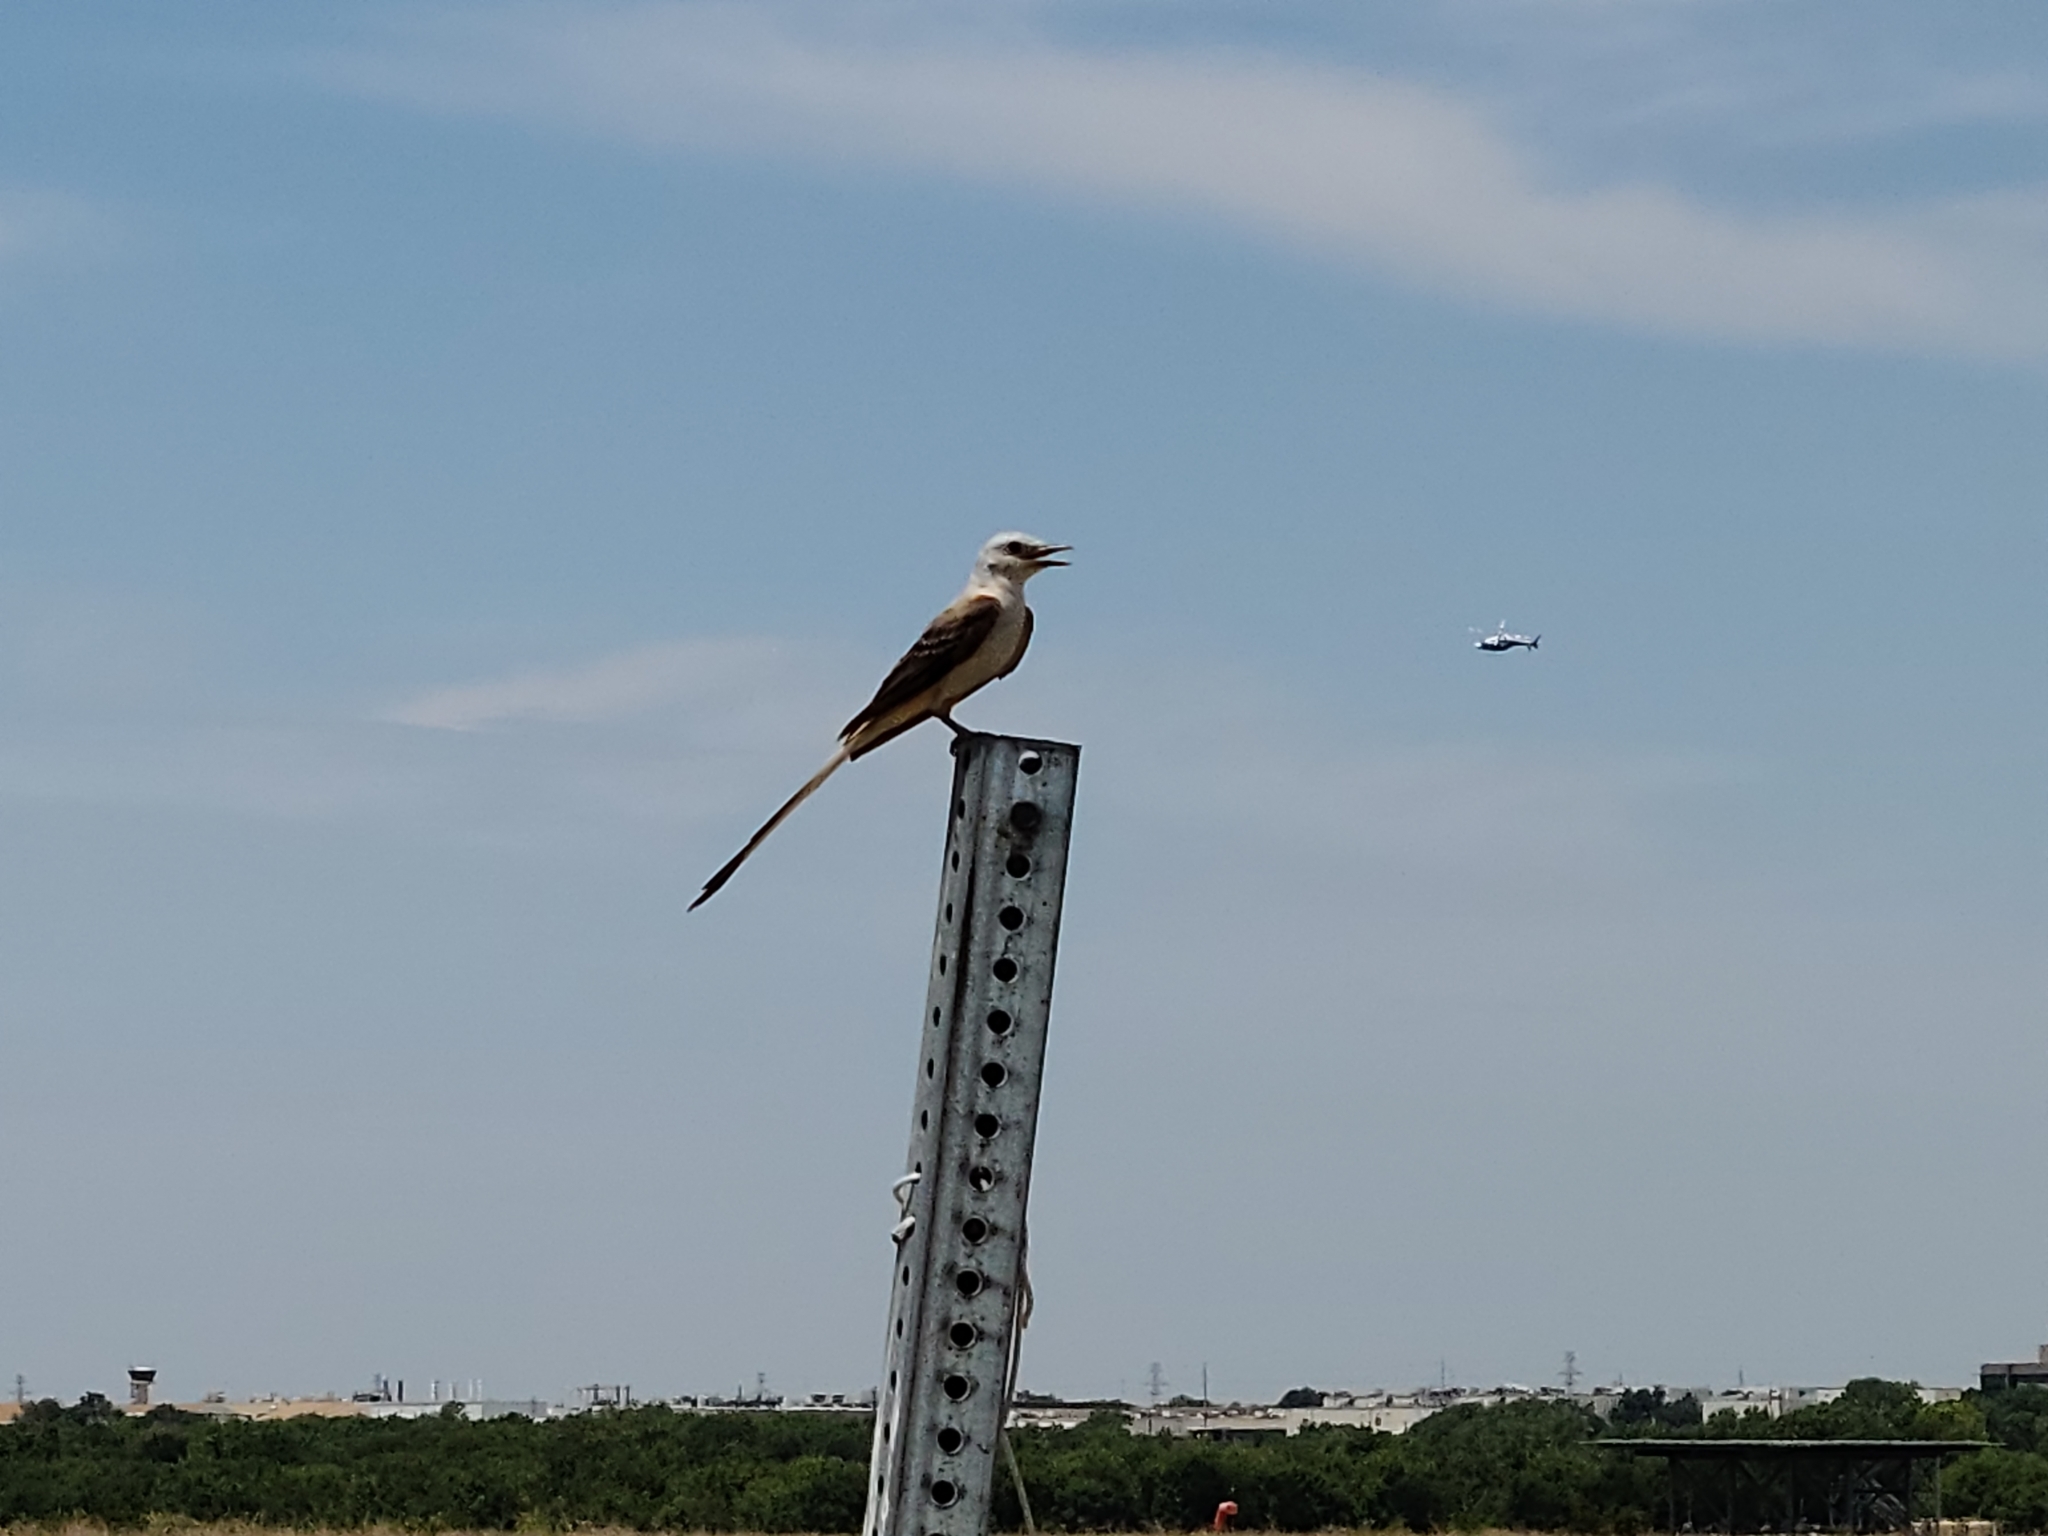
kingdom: Animalia
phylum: Chordata
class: Aves
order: Passeriformes
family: Tyrannidae
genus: Tyrannus
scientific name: Tyrannus forficatus
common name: Scissor-tailed flycatcher
